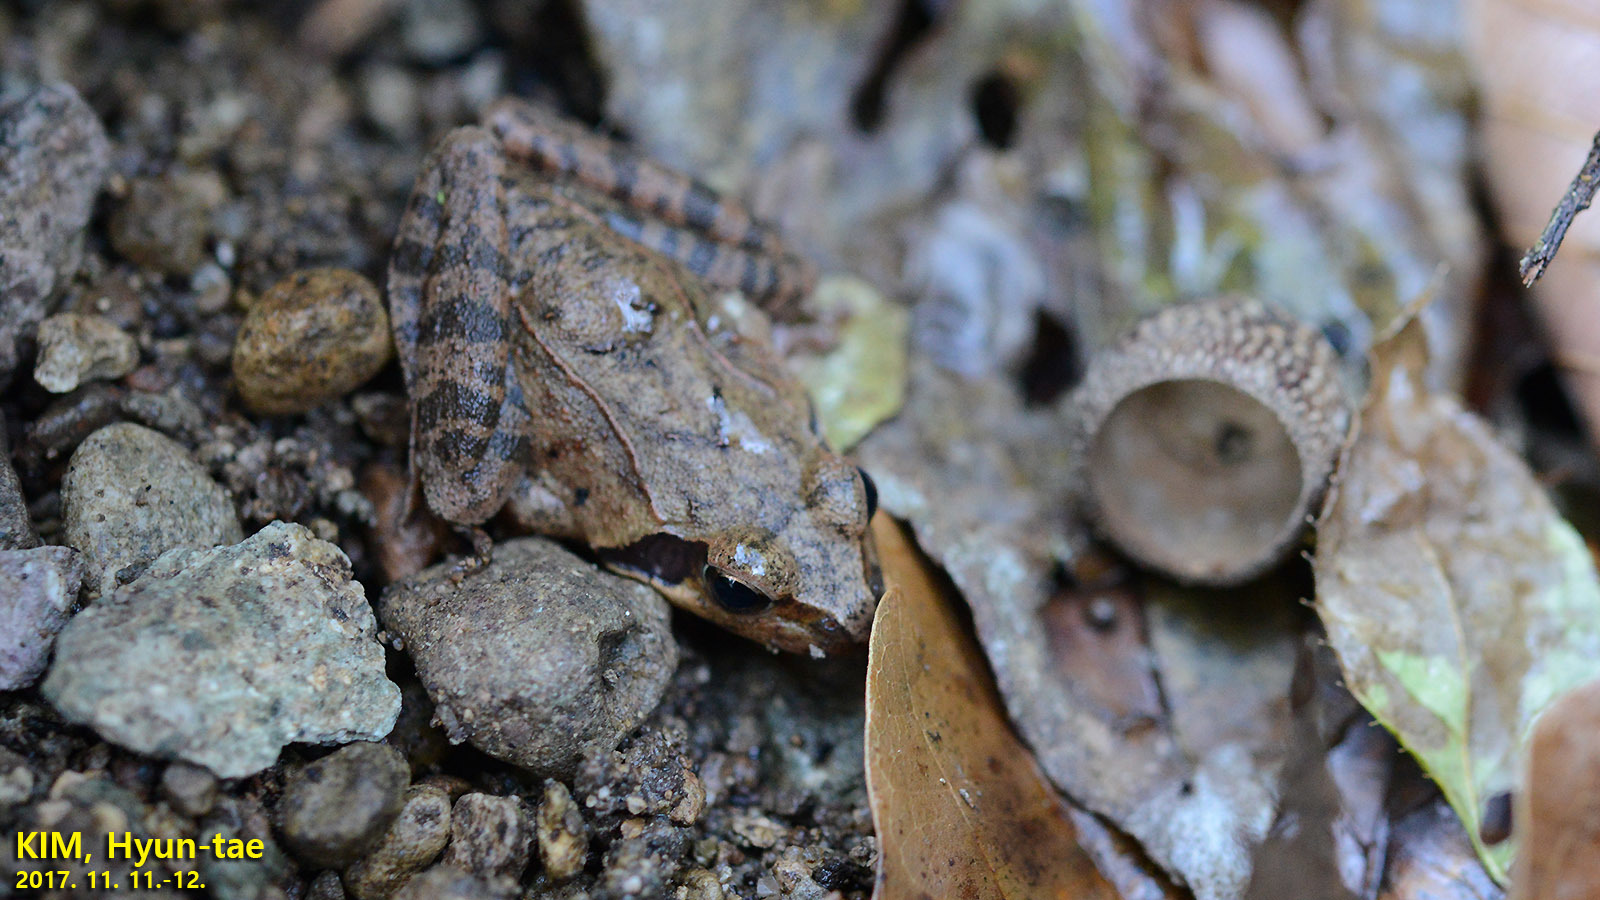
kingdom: Animalia
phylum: Chordata
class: Amphibia
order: Anura
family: Ranidae
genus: Rana
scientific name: Rana uenoi
